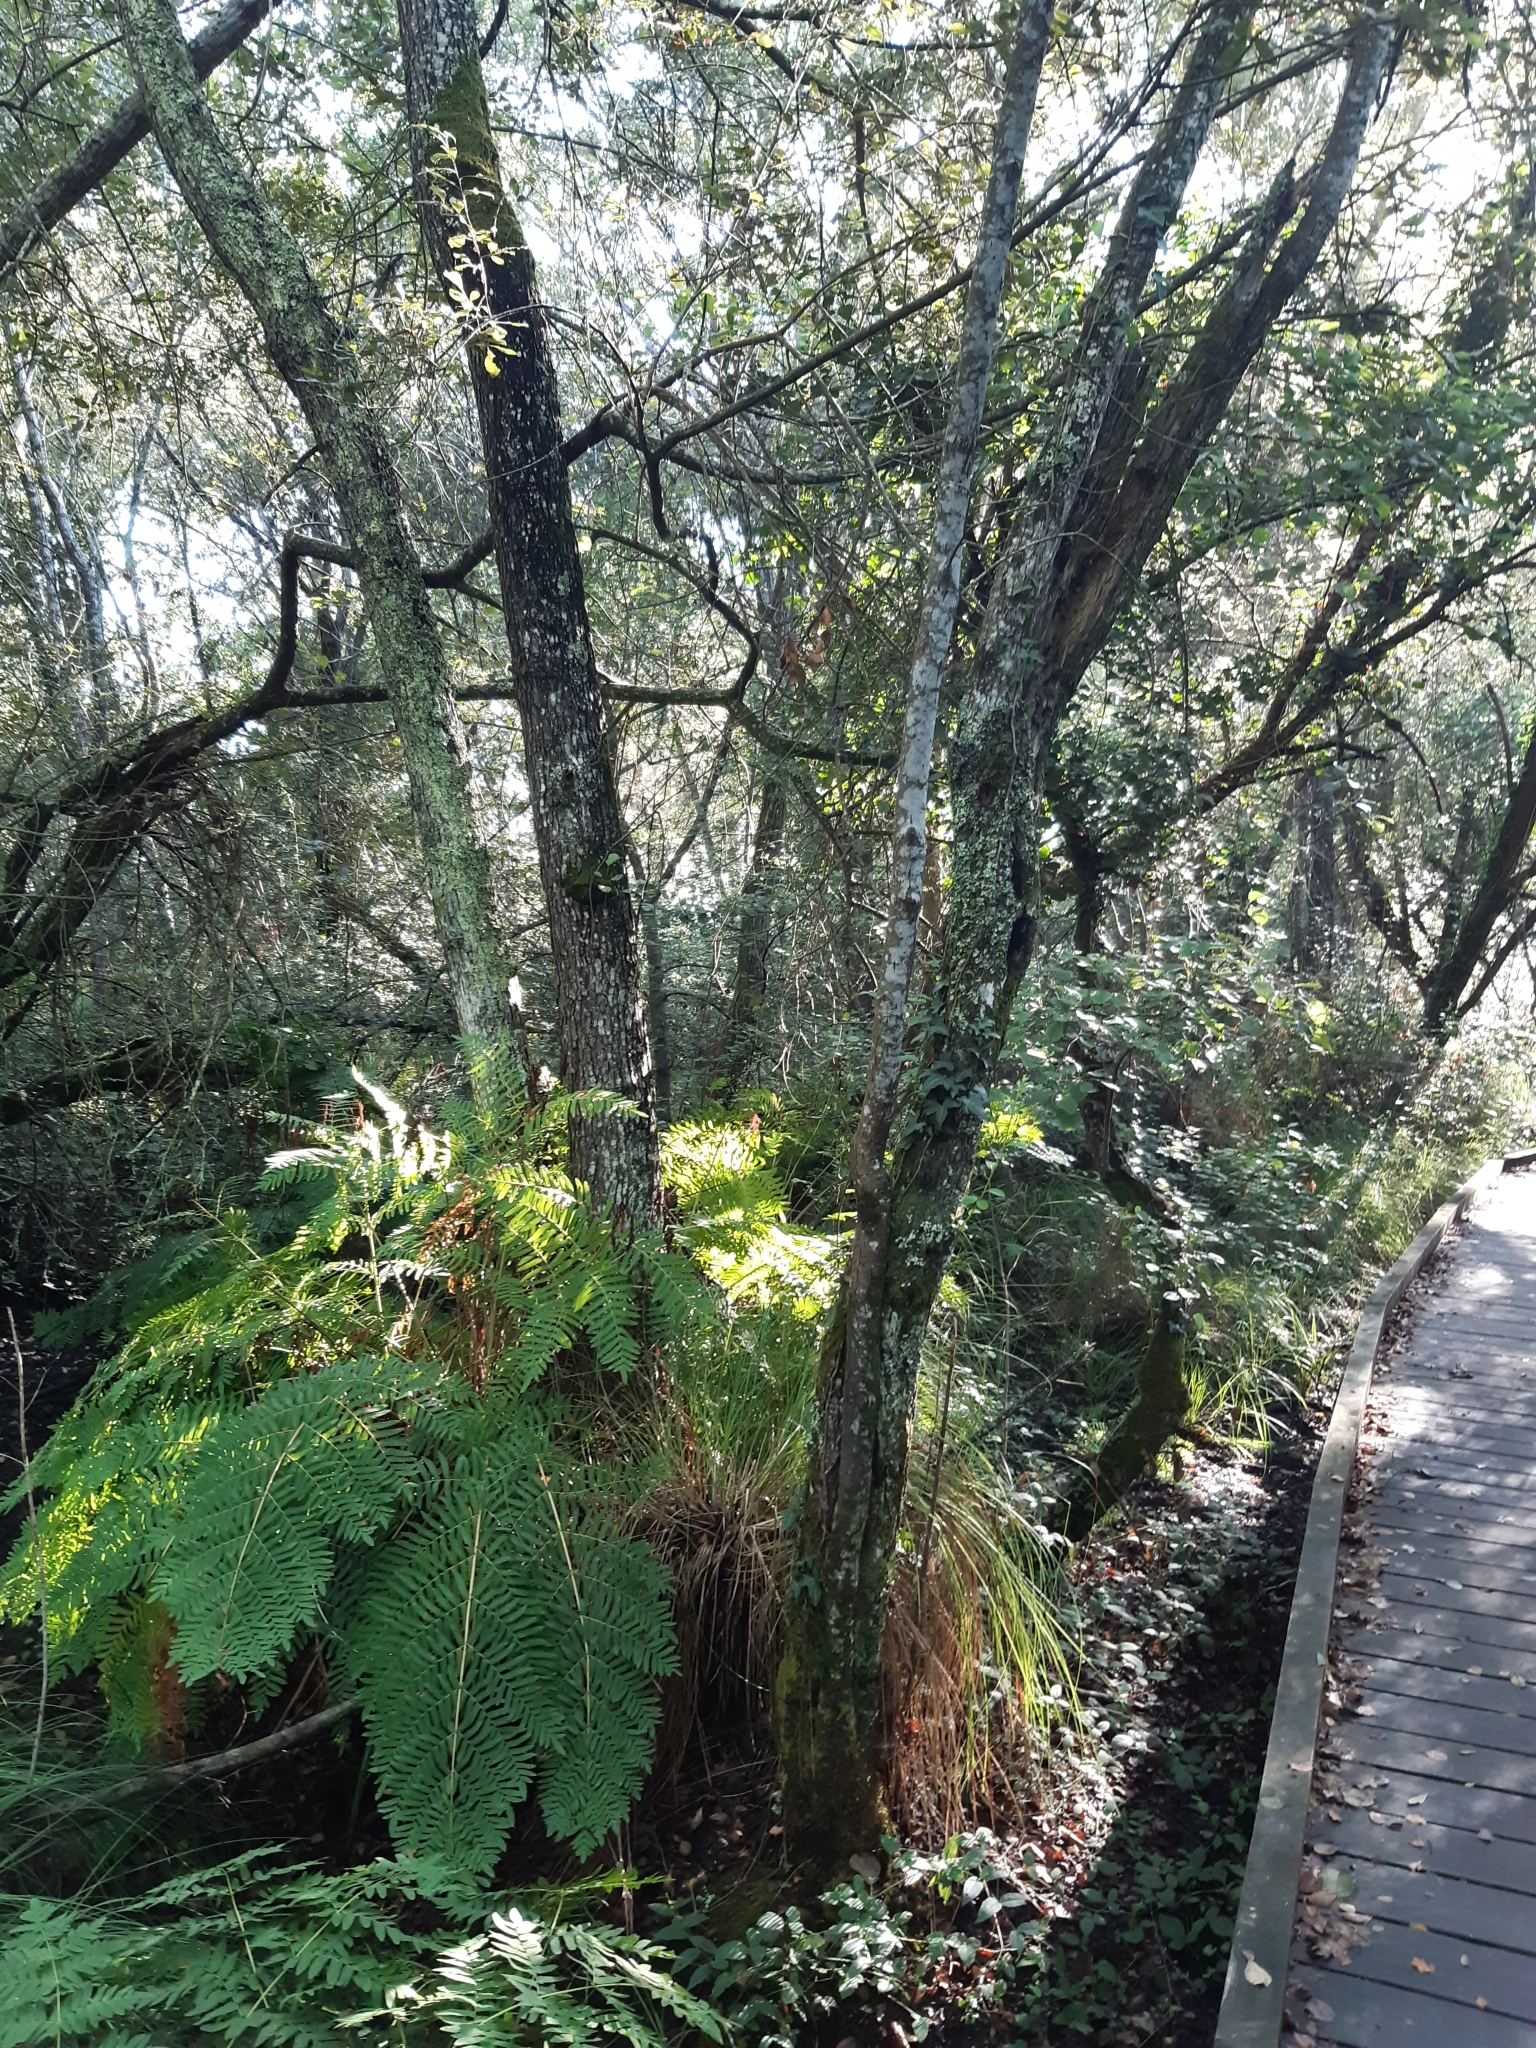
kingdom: Plantae
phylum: Tracheophyta
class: Polypodiopsida
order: Osmundales
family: Osmundaceae
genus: Osmunda
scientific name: Osmunda regalis
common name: Royal fern
